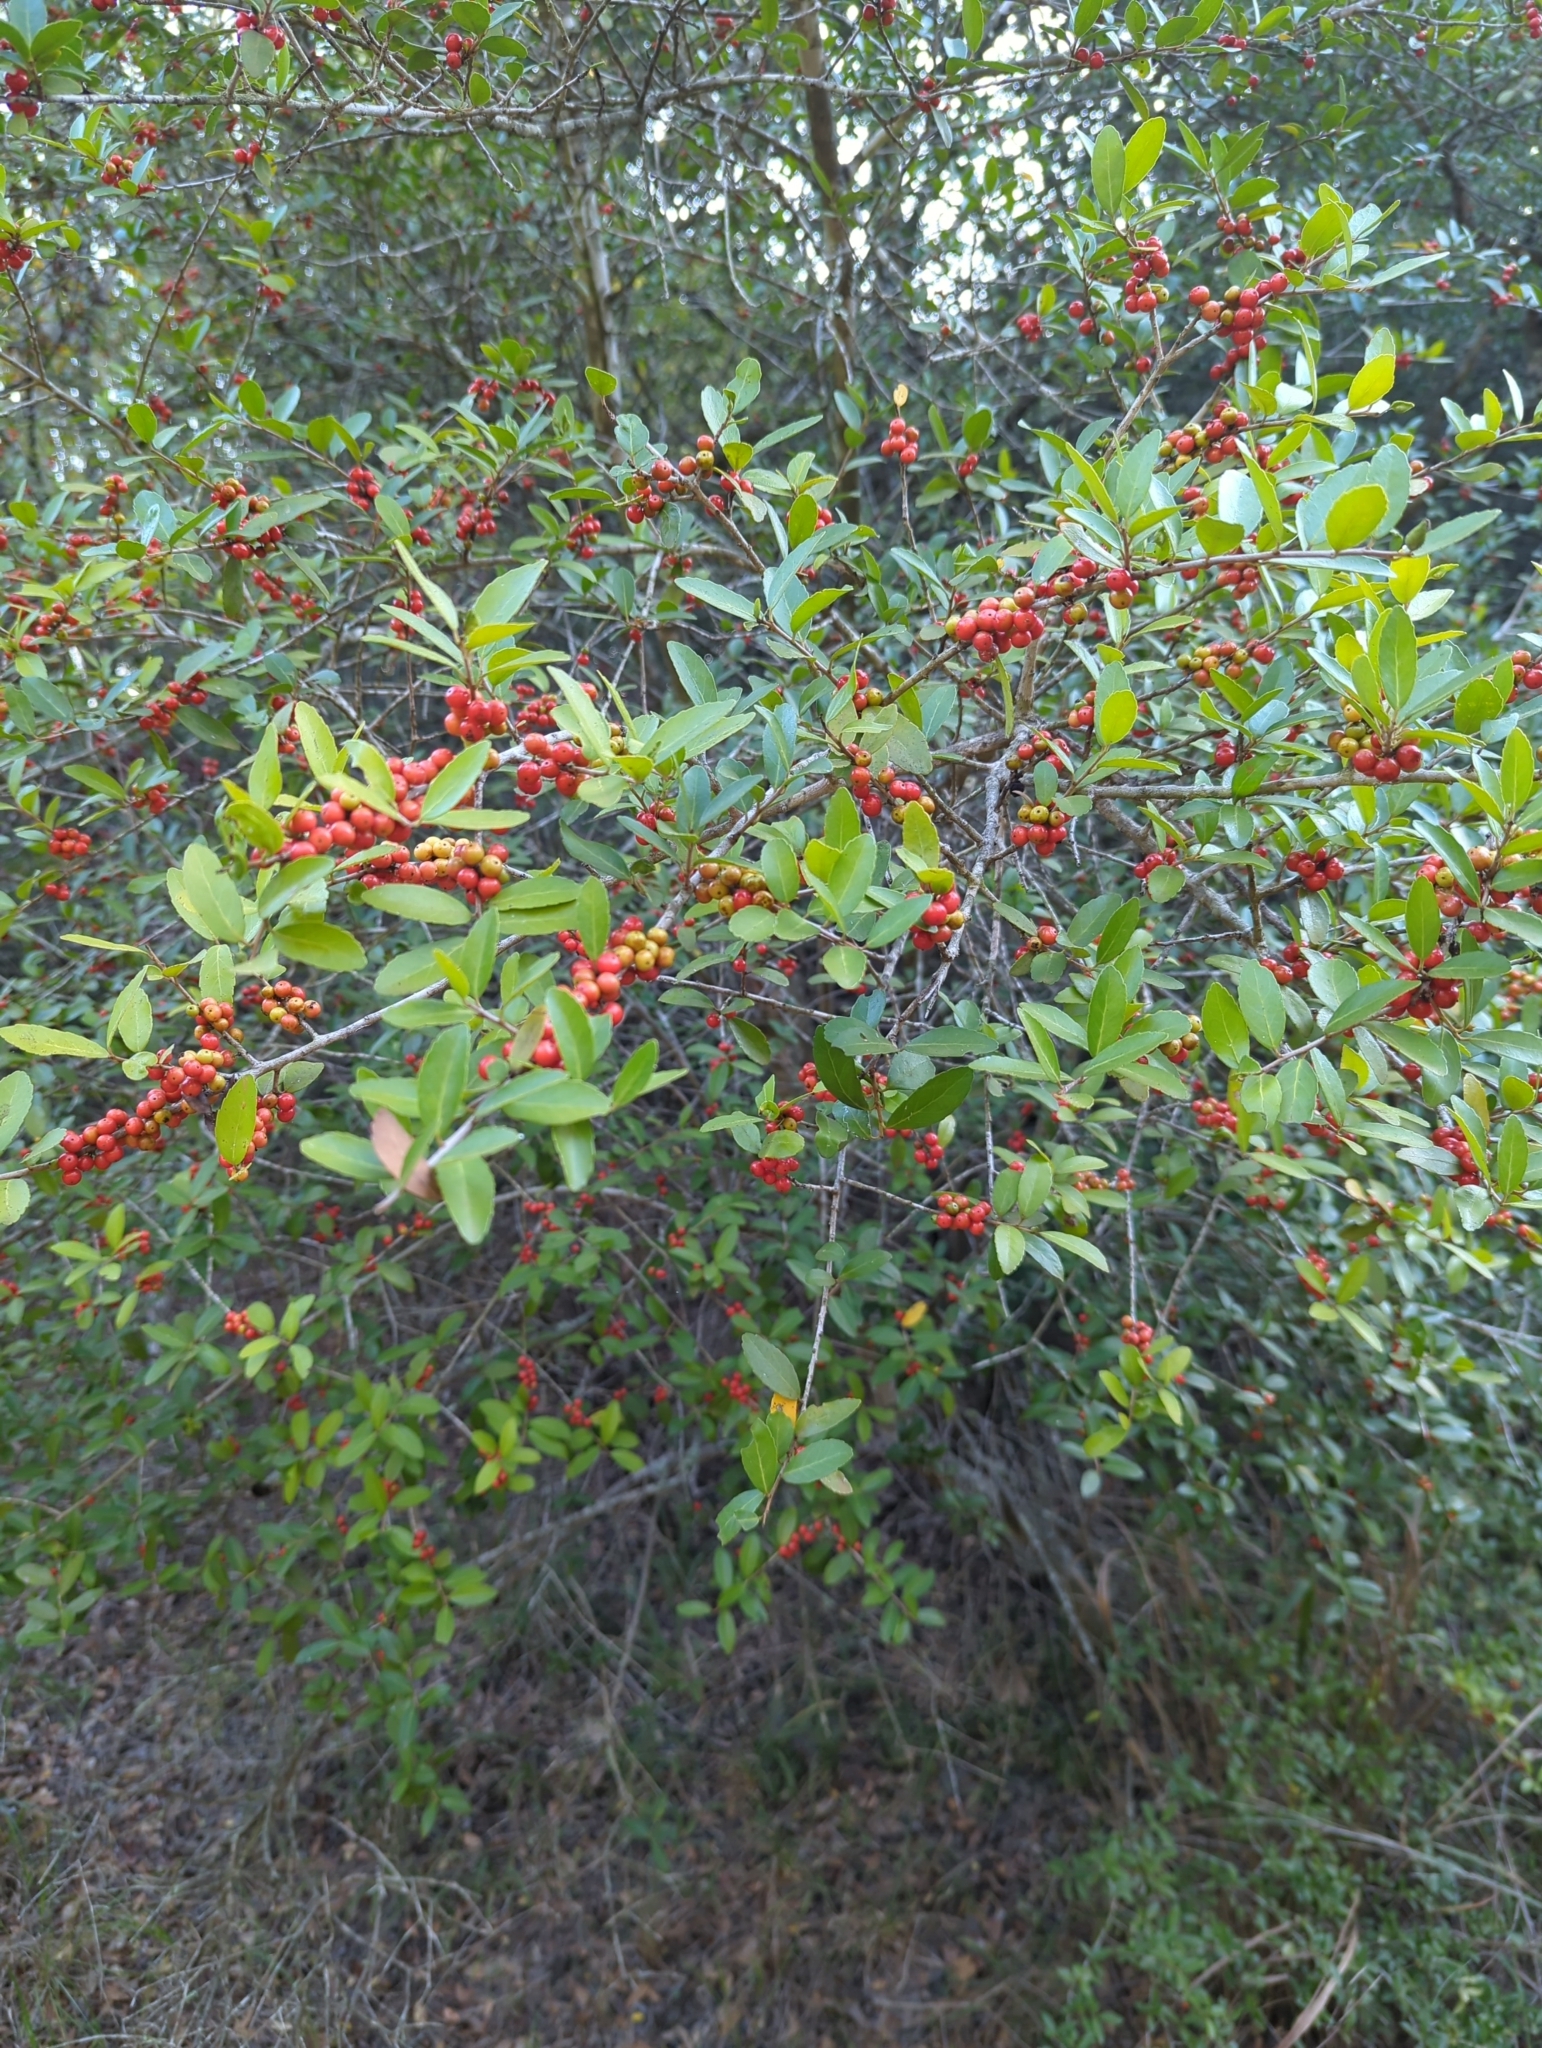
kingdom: Plantae
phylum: Tracheophyta
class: Magnoliopsida
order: Aquifoliales
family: Aquifoliaceae
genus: Ilex
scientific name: Ilex vomitoria
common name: Yaupon holly
